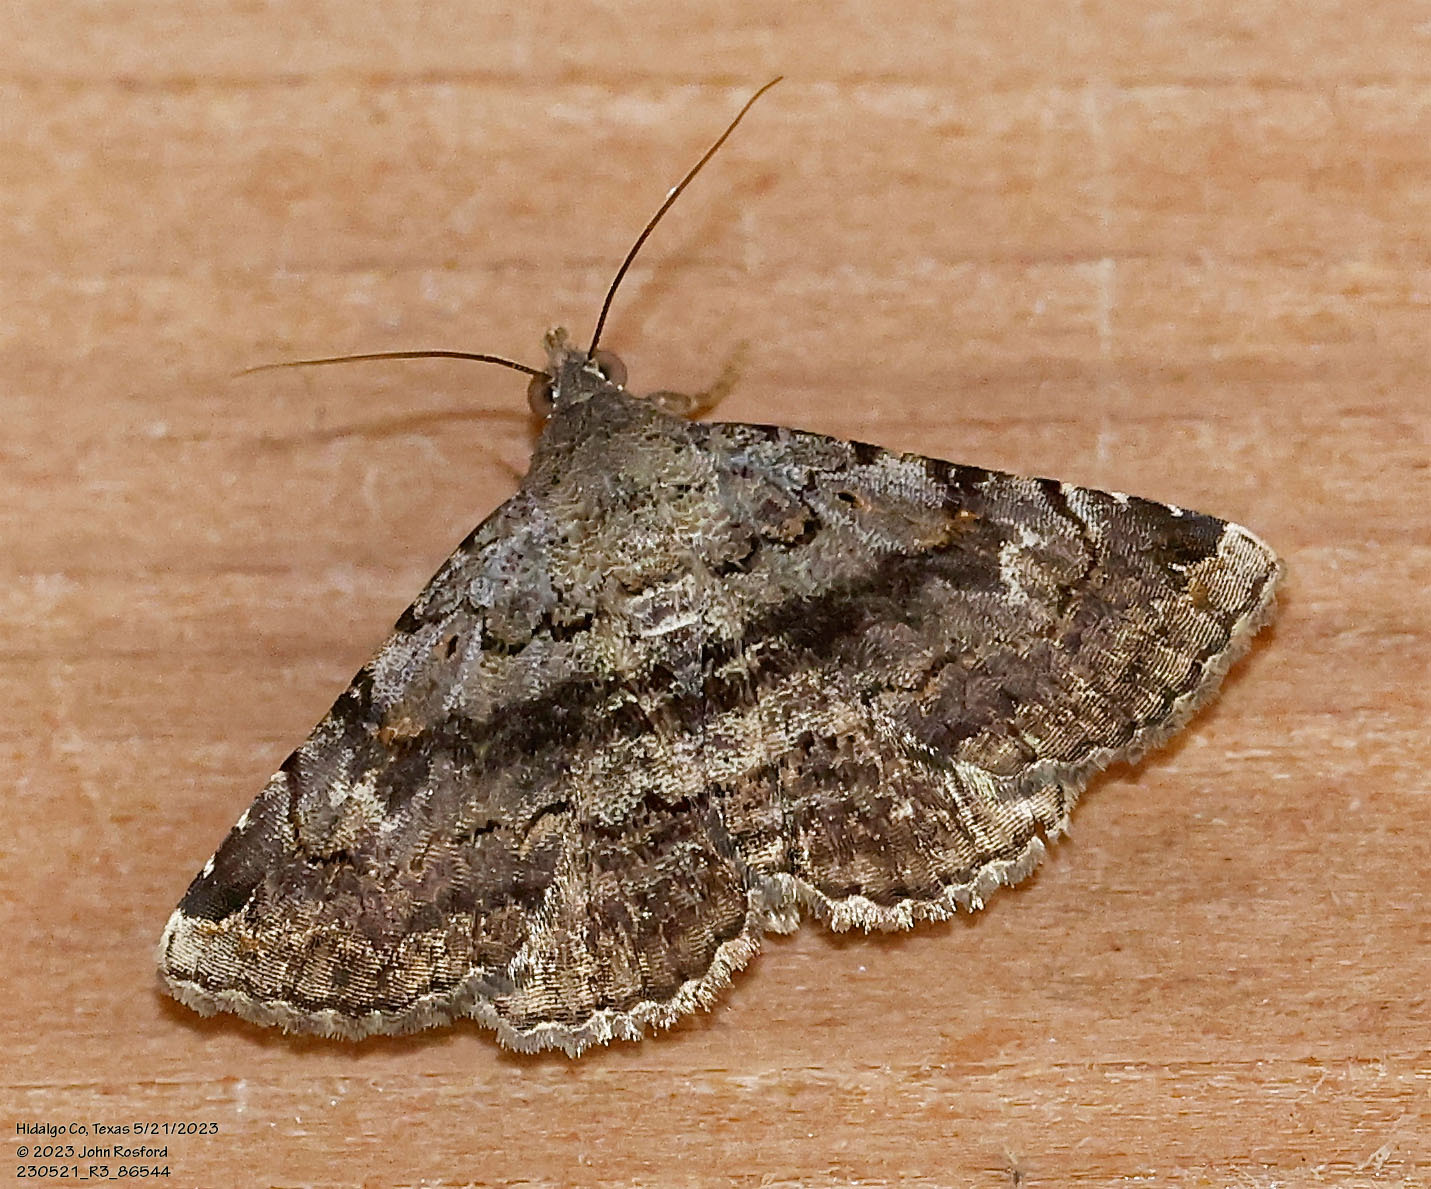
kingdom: Animalia
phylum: Arthropoda
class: Insecta
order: Lepidoptera
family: Erebidae
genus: Toxonprucha
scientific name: Toxonprucha crudelis
